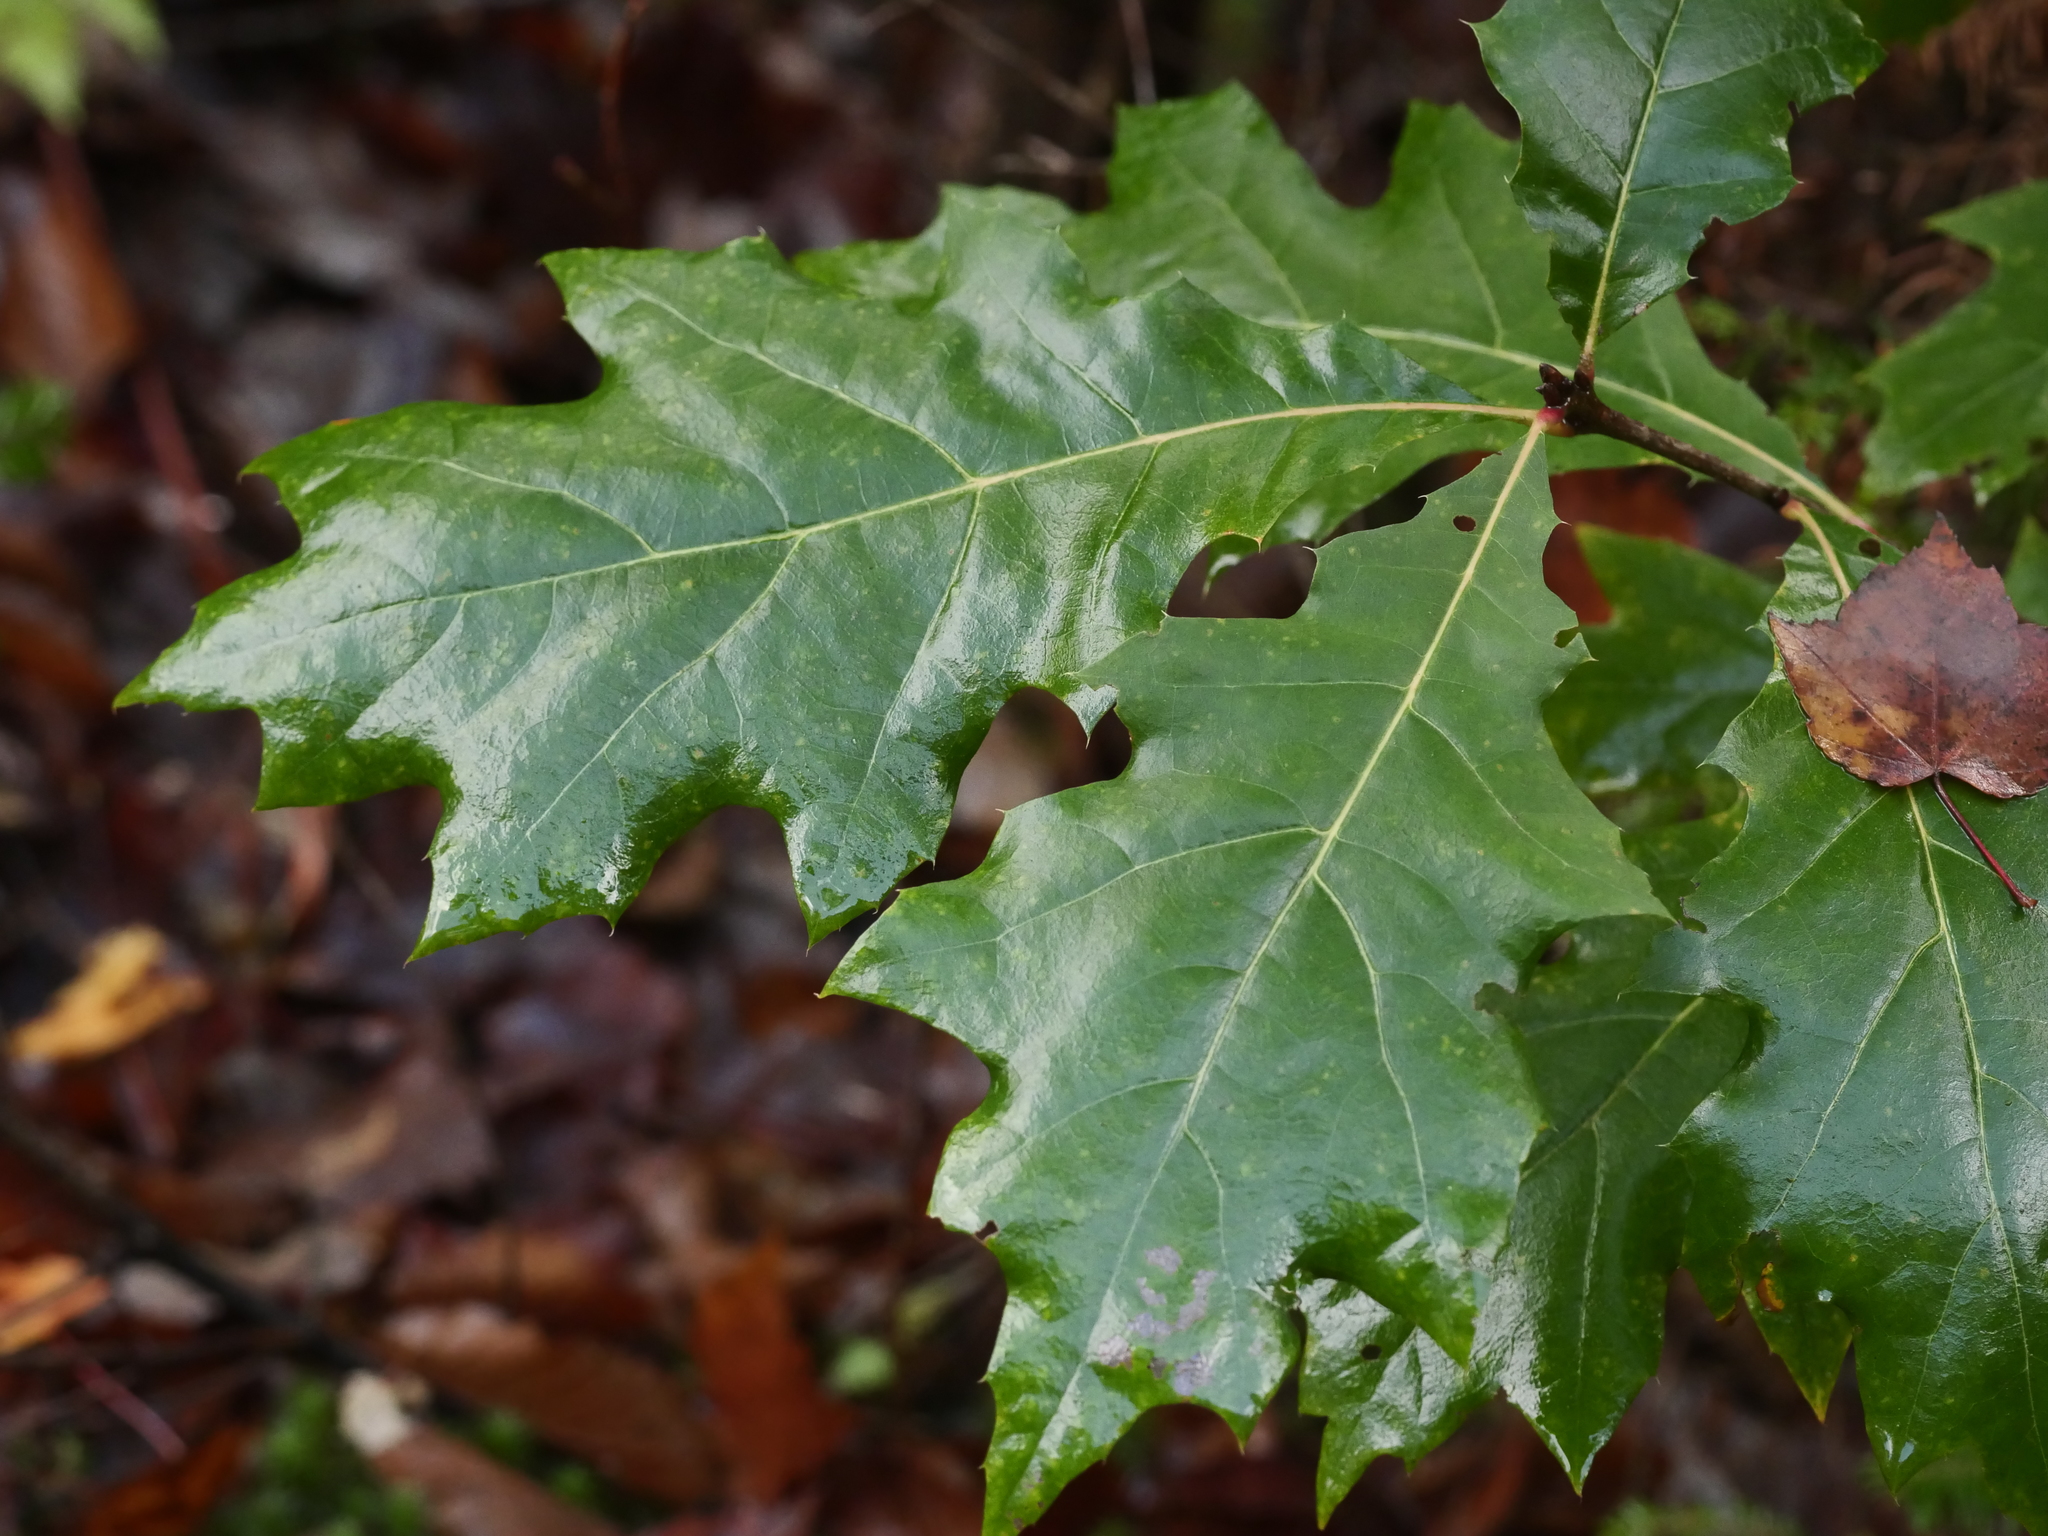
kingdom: Plantae
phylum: Tracheophyta
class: Magnoliopsida
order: Fagales
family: Fagaceae
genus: Quercus
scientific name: Quercus rubra
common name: Red oak
